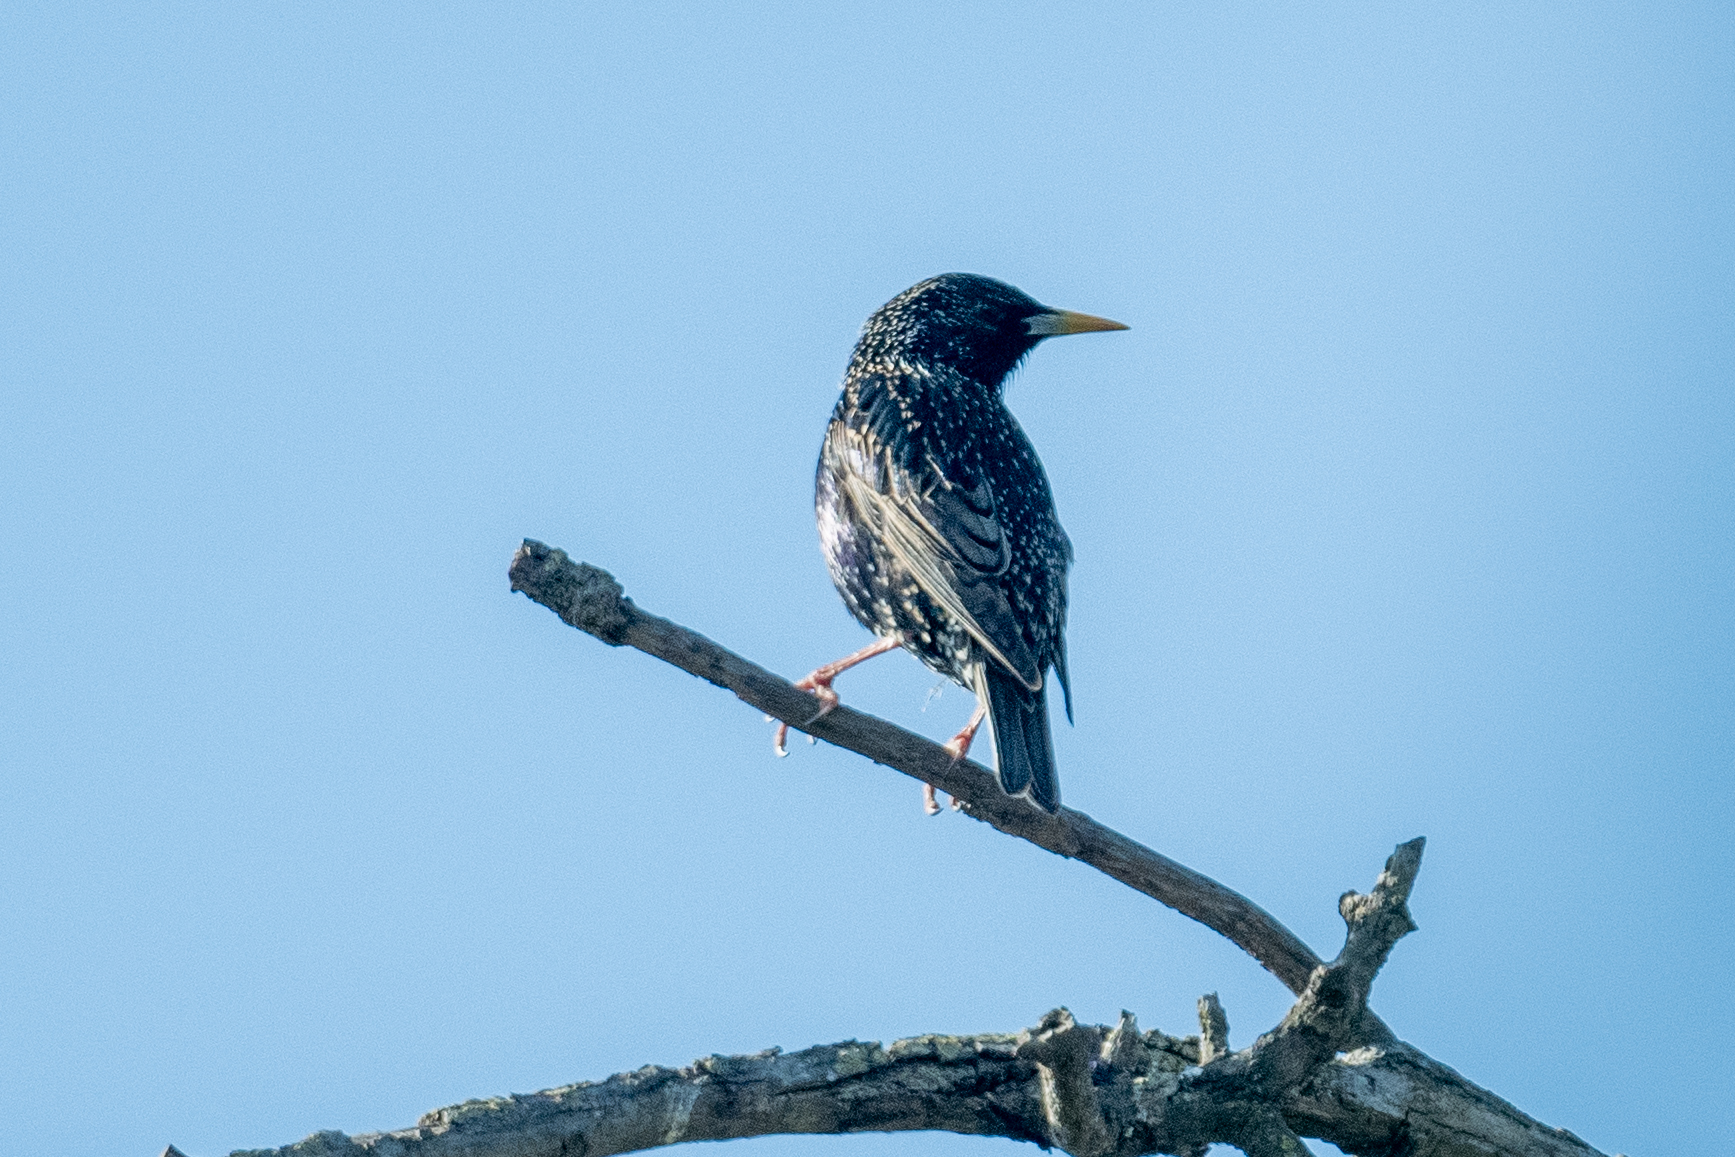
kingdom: Animalia
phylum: Chordata
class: Aves
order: Passeriformes
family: Sturnidae
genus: Sturnus
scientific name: Sturnus vulgaris
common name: Common starling
